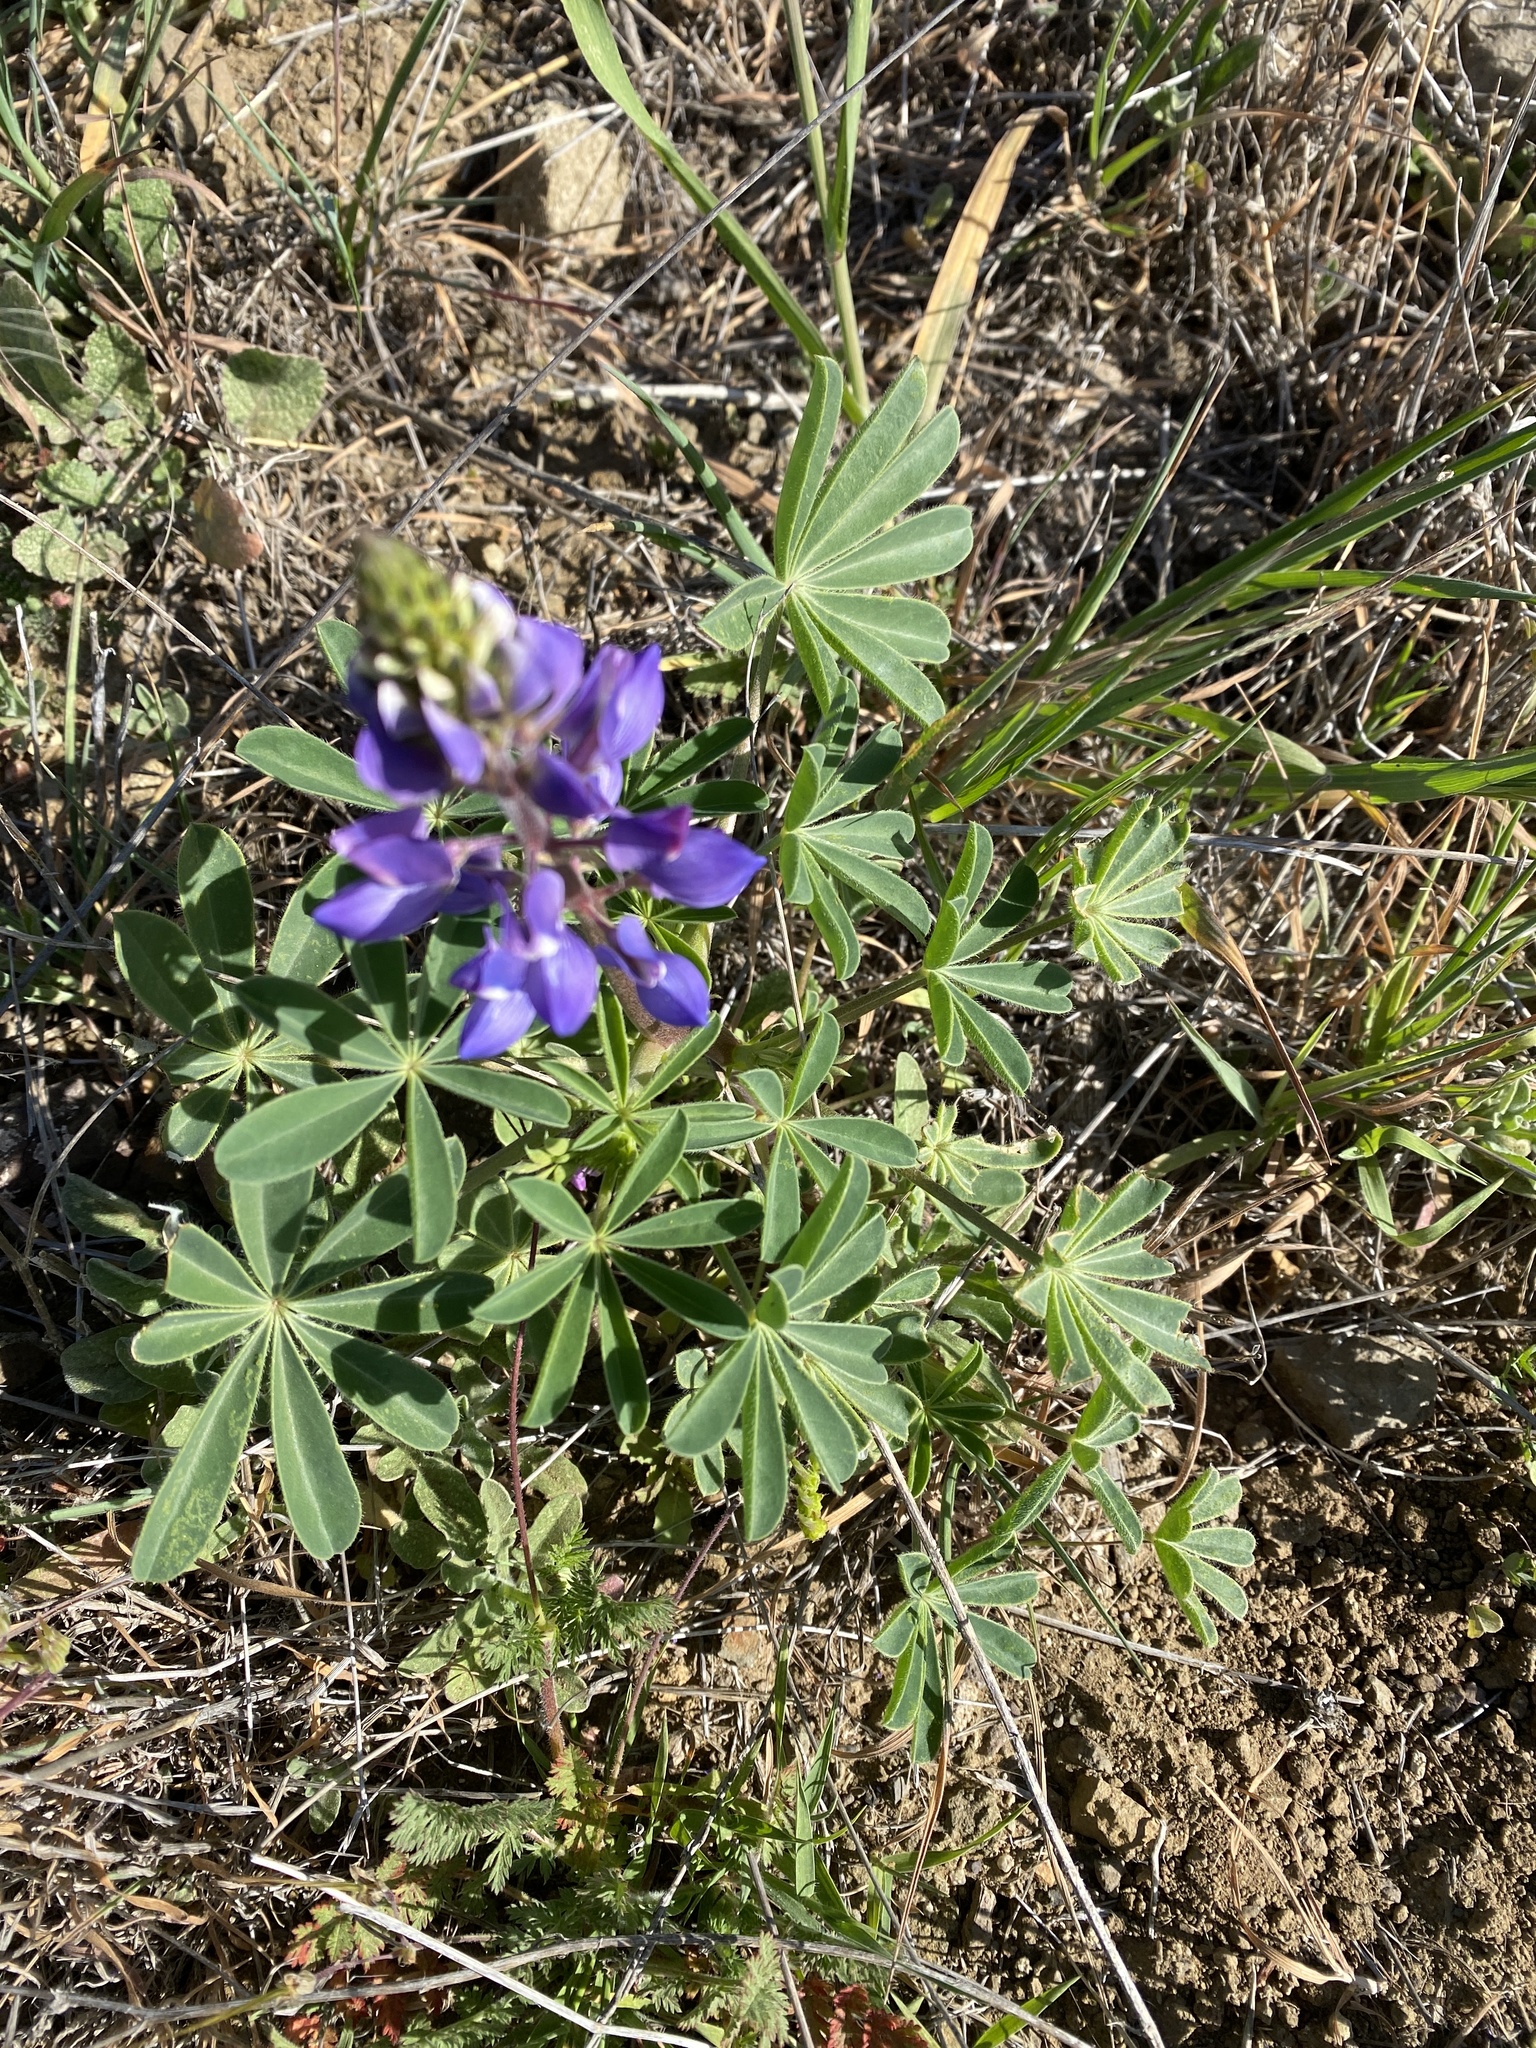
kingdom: Plantae
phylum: Tracheophyta
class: Magnoliopsida
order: Fabales
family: Fabaceae
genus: Lupinus
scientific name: Lupinus succulentus
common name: Arroyo lupine
